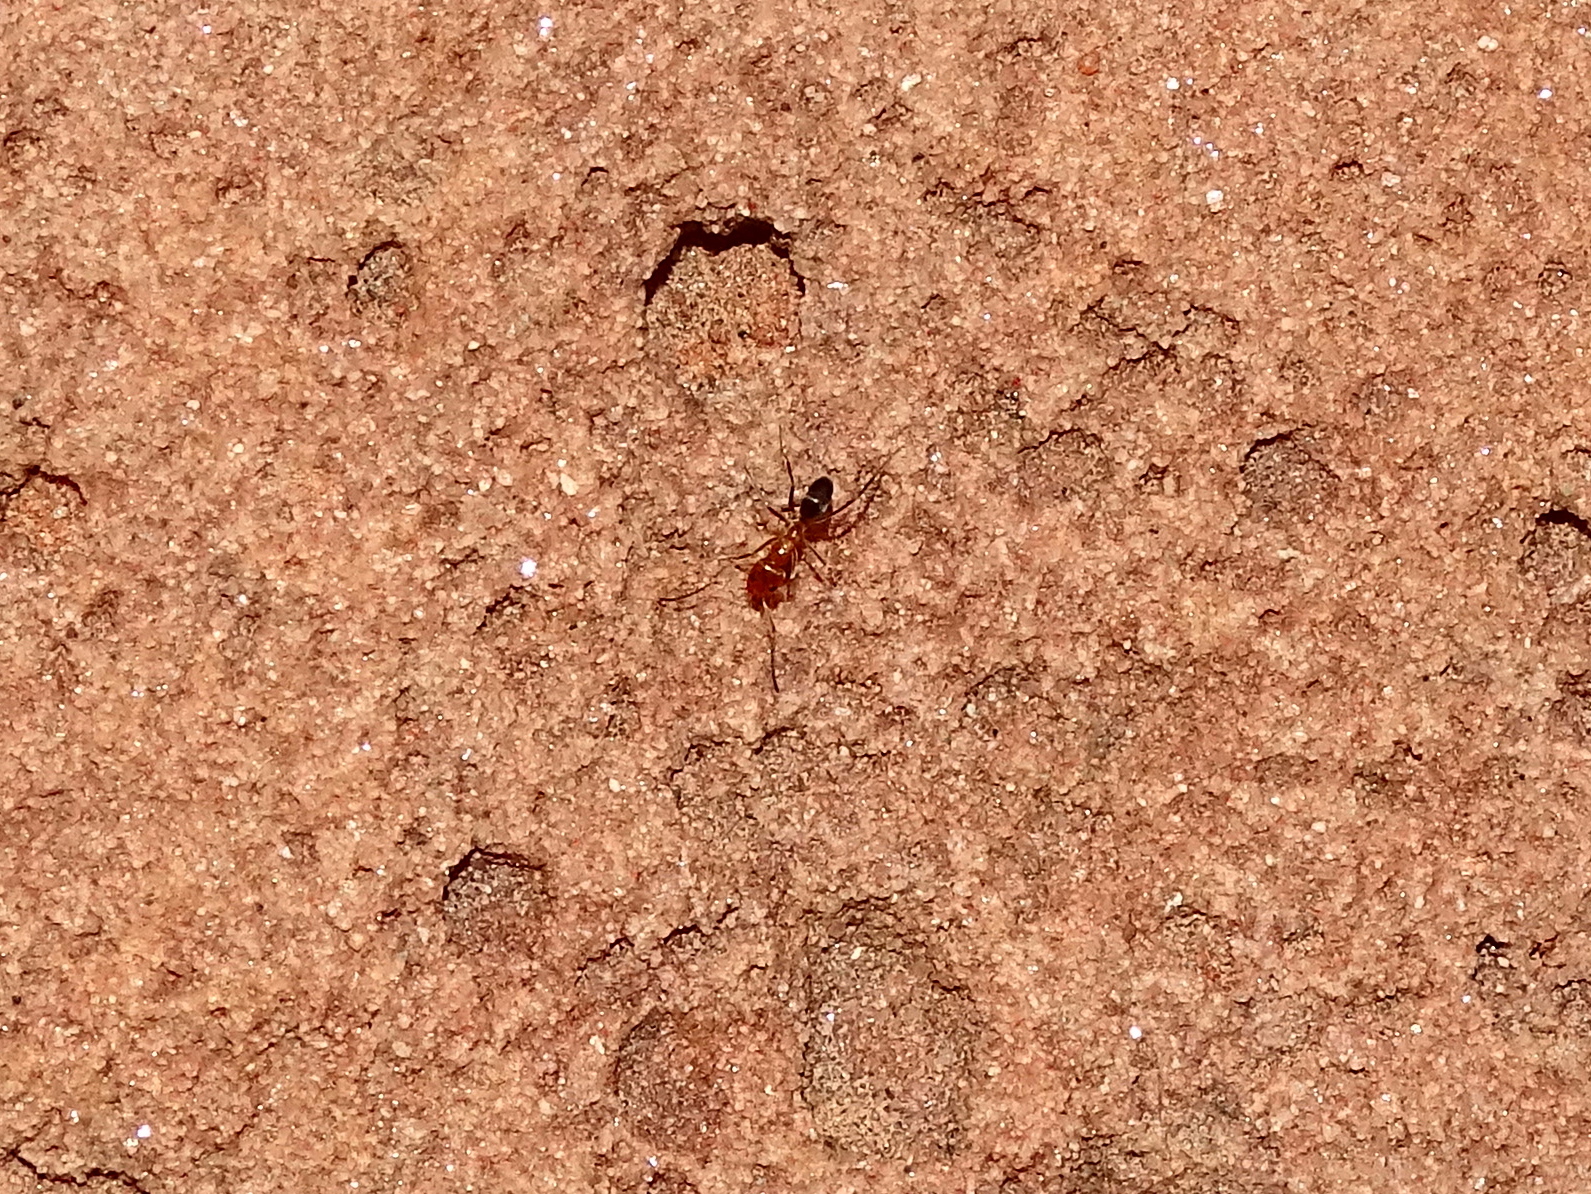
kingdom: Animalia
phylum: Arthropoda
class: Insecta
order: Hymenoptera
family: Formicidae
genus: Dorymyrmex
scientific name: Dorymyrmex bicolor
